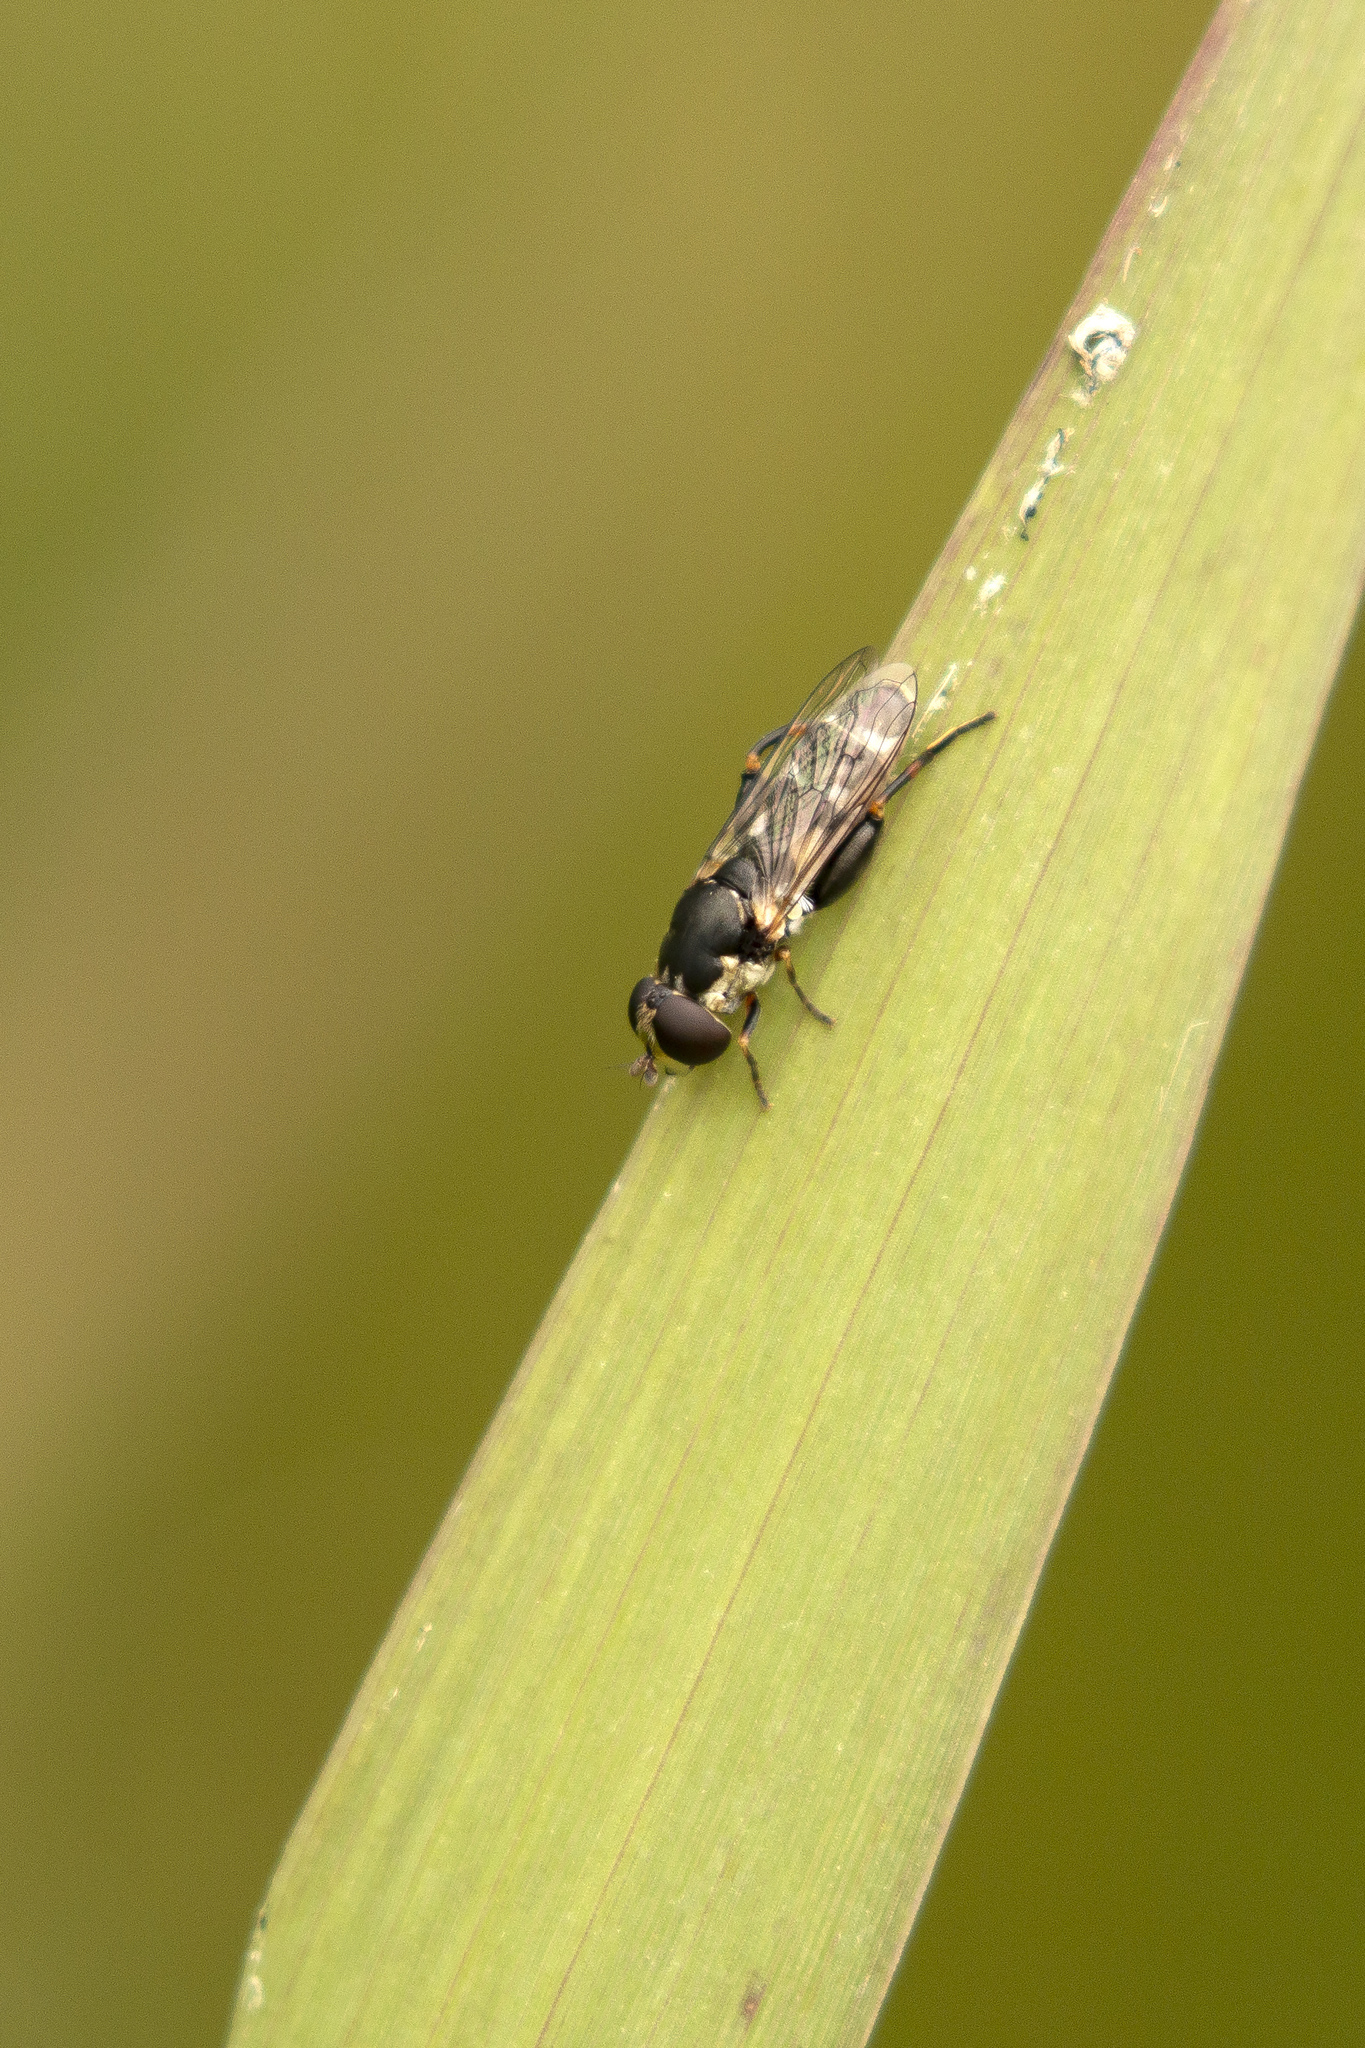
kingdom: Animalia
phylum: Arthropoda
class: Insecta
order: Diptera
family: Syrphidae
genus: Syritta
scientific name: Syritta pipiens
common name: Hover fly
